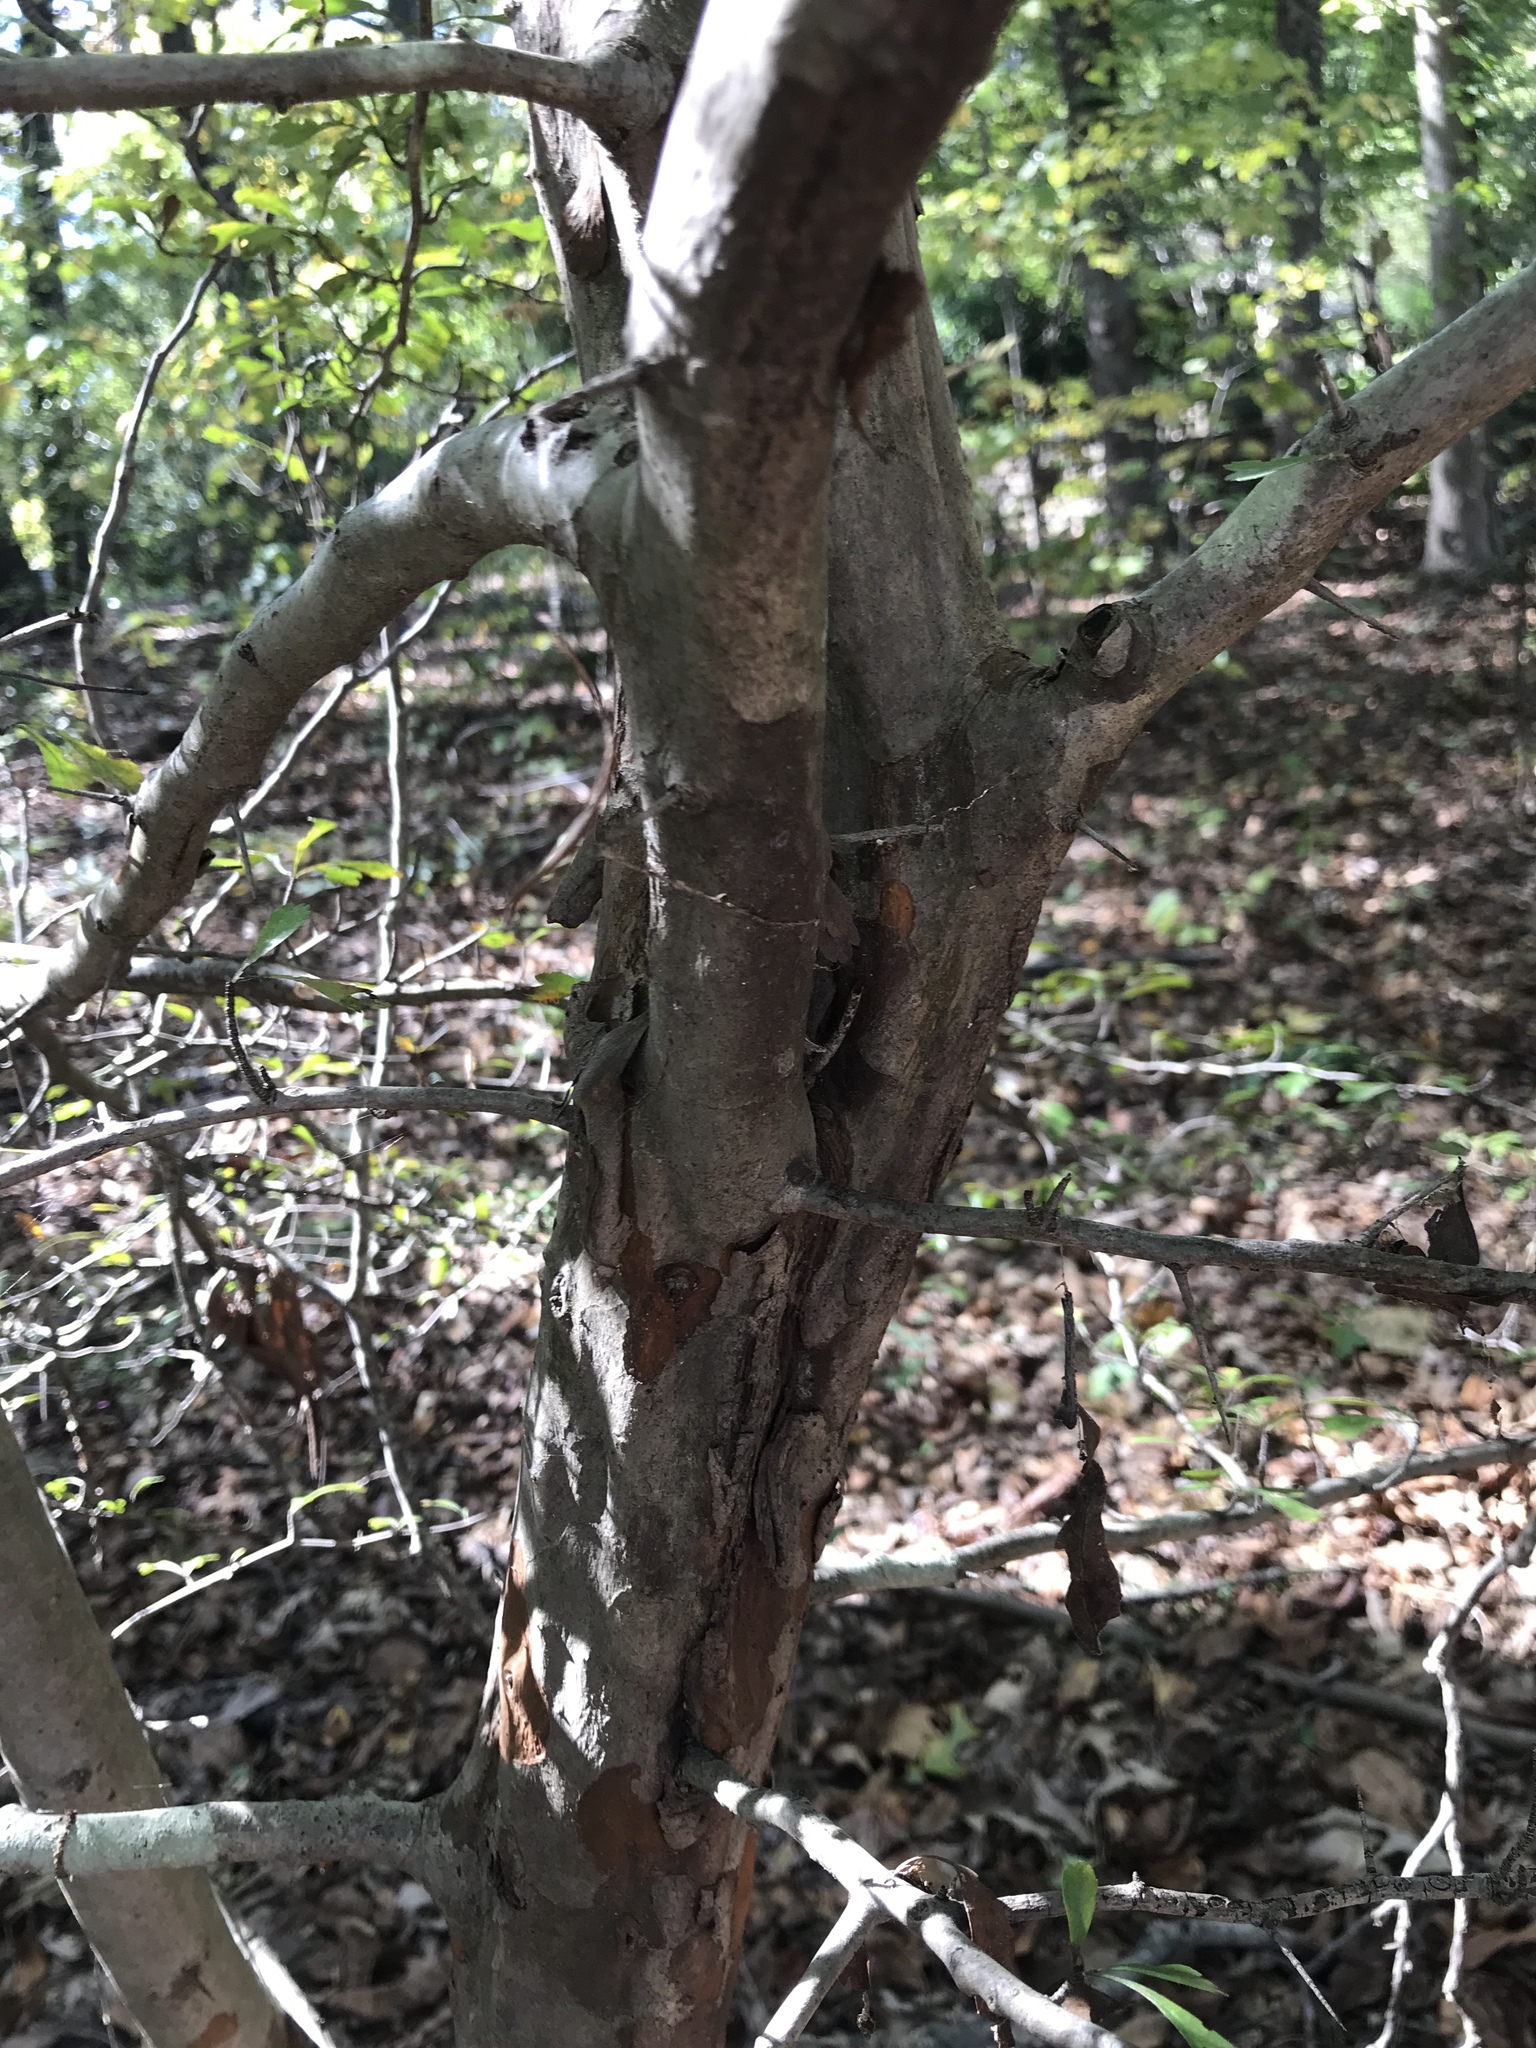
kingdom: Plantae
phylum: Tracheophyta
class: Magnoliopsida
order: Rosales
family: Rosaceae
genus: Crataegus
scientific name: Crataegus spathulata
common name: Littlehip hawthorn
